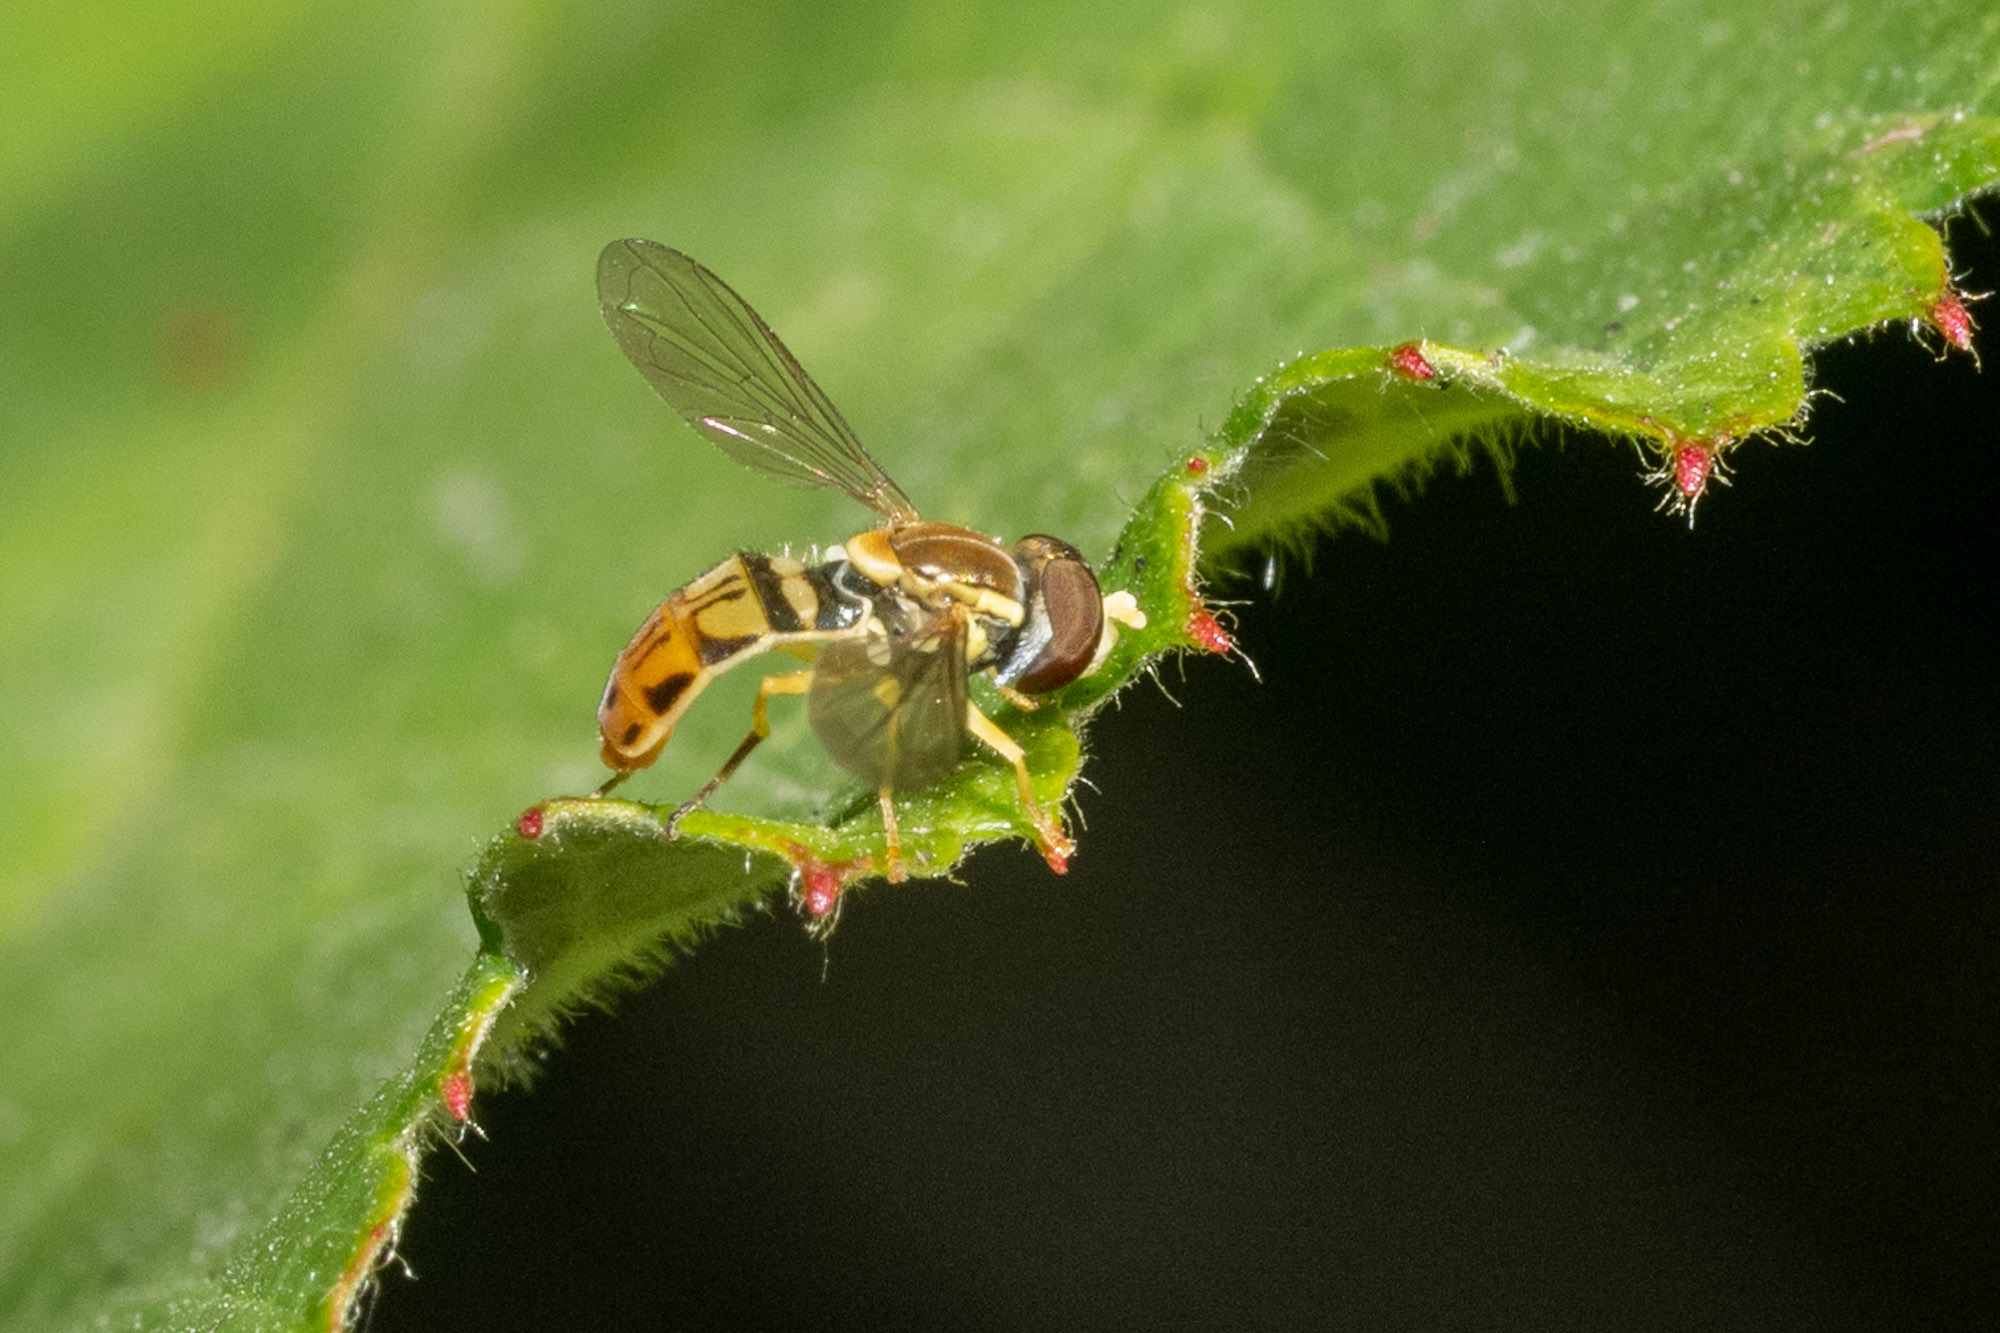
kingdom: Animalia
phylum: Arthropoda
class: Insecta
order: Diptera
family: Syrphidae
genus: Toxomerus
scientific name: Toxomerus marginatus
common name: Syrphid fly
